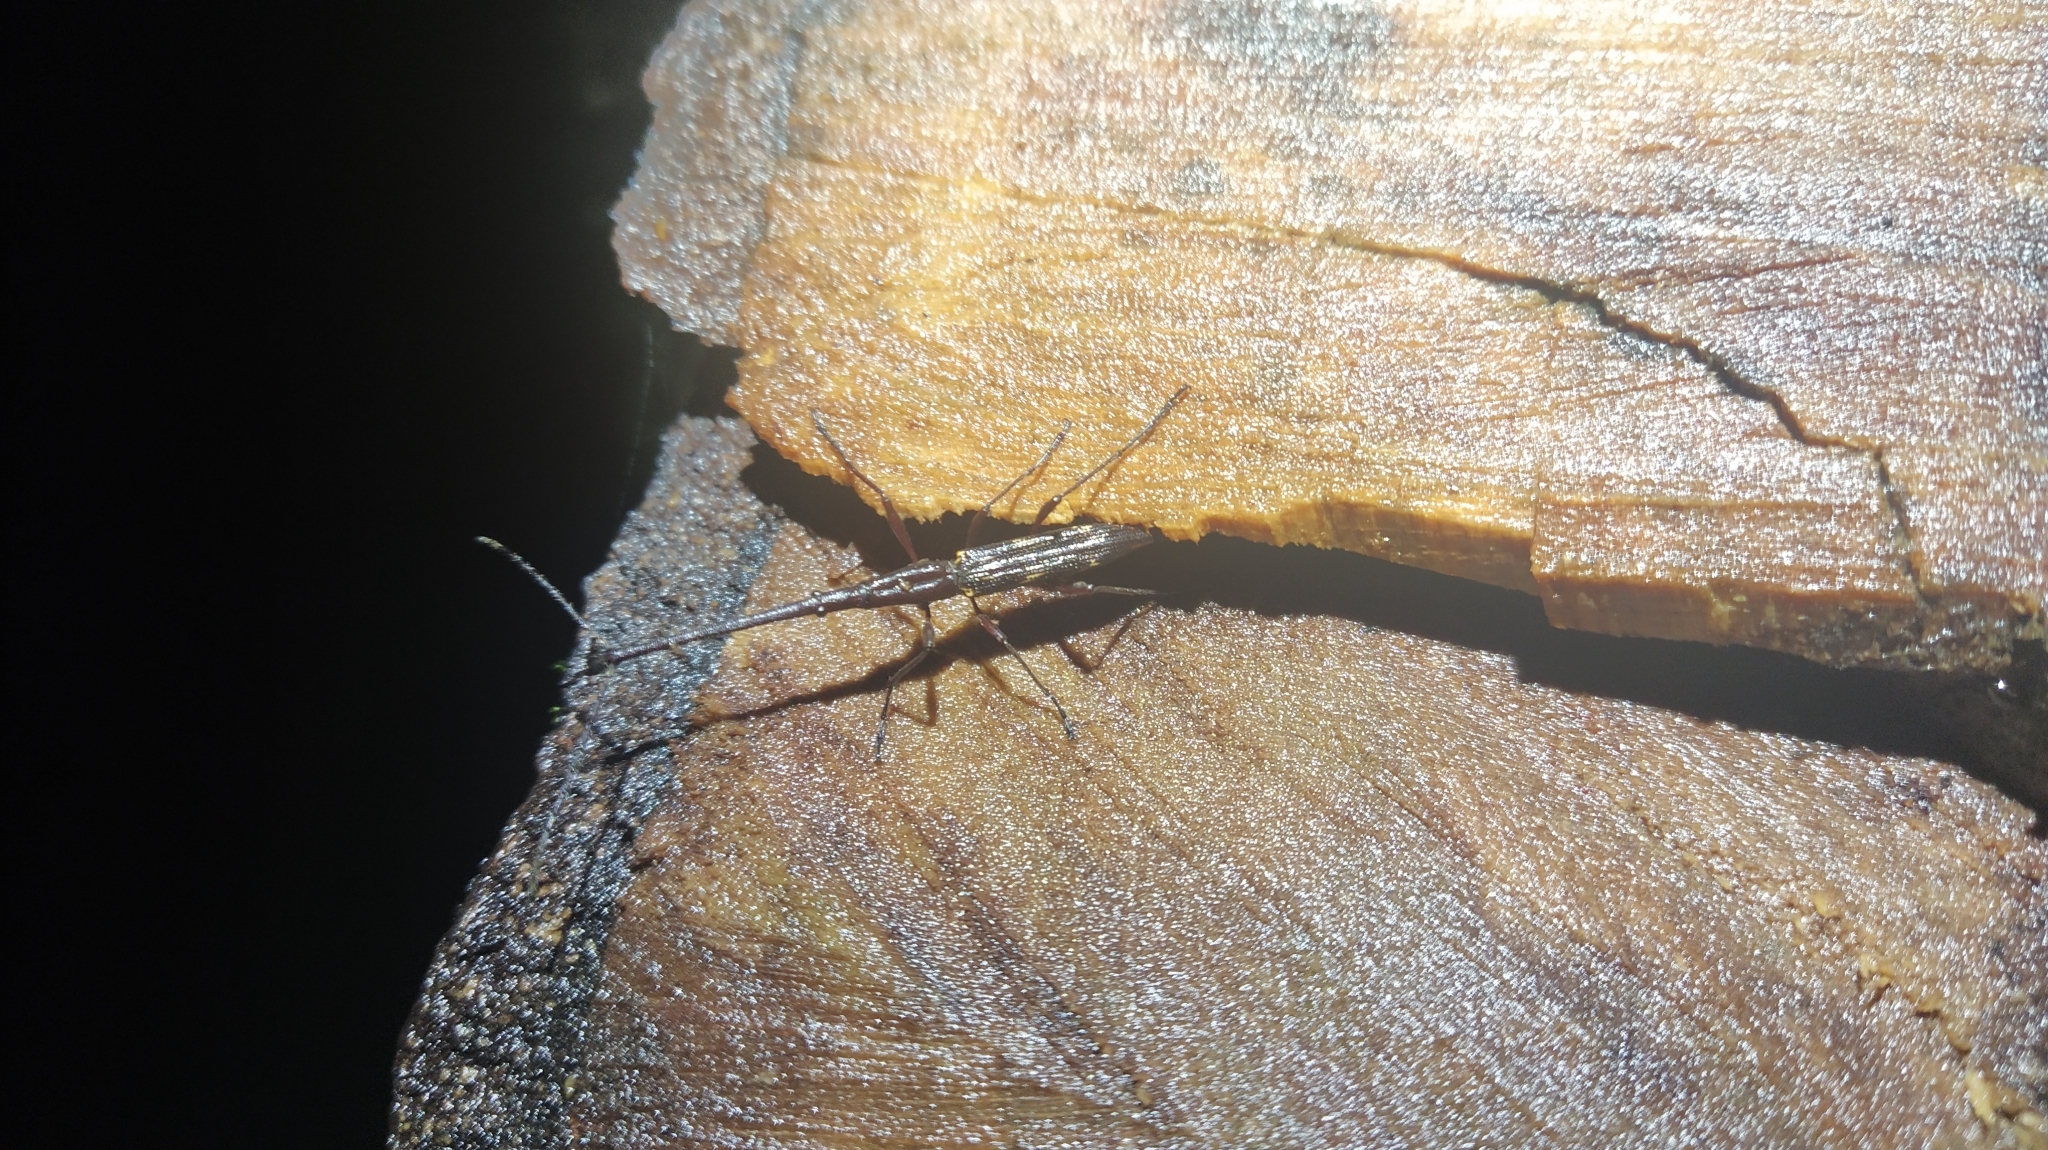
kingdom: Animalia
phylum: Arthropoda
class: Insecta
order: Coleoptera
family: Brentidae
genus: Lasiorhynchus
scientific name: Lasiorhynchus barbicornis
